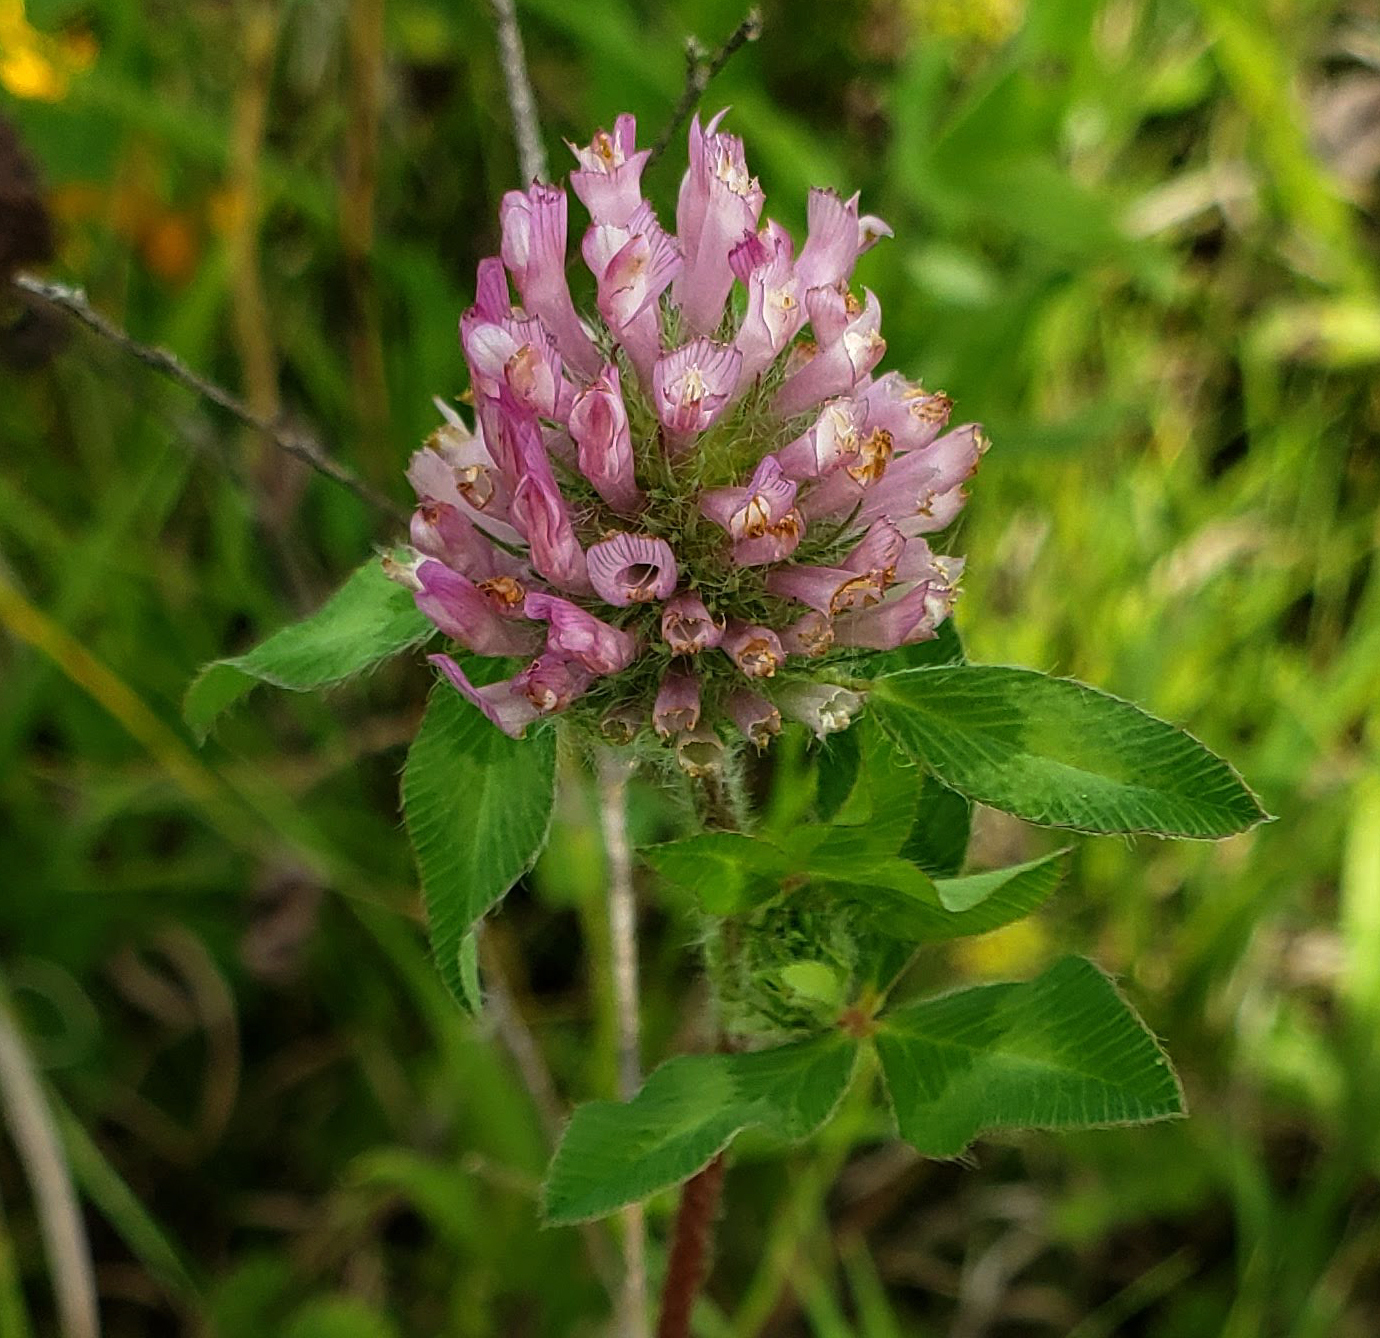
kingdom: Plantae
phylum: Tracheophyta
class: Magnoliopsida
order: Fabales
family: Fabaceae
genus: Trifolium
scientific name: Trifolium pratense
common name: Red clover
